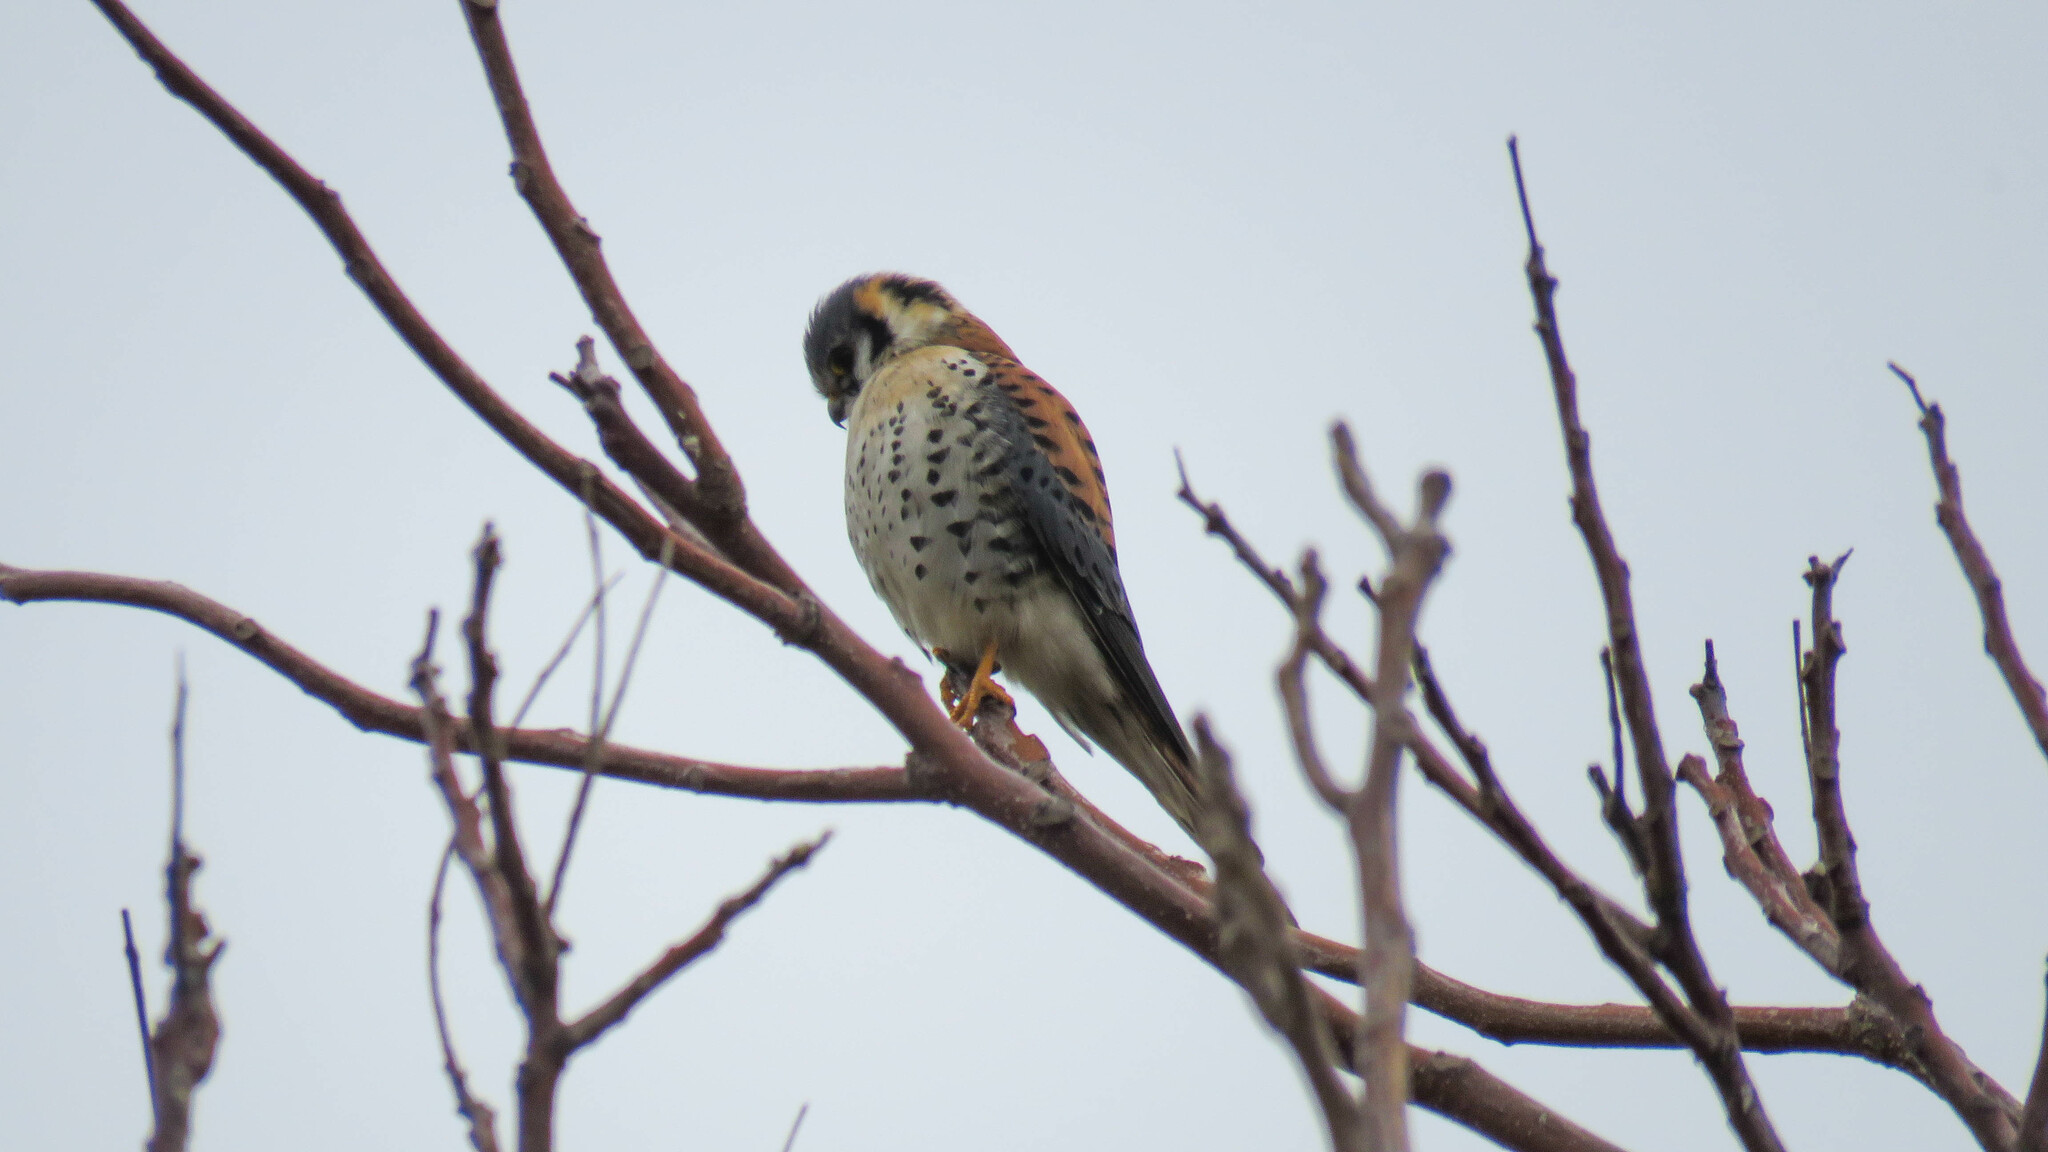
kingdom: Animalia
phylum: Chordata
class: Aves
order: Falconiformes
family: Falconidae
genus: Falco
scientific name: Falco sparverius
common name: American kestrel
